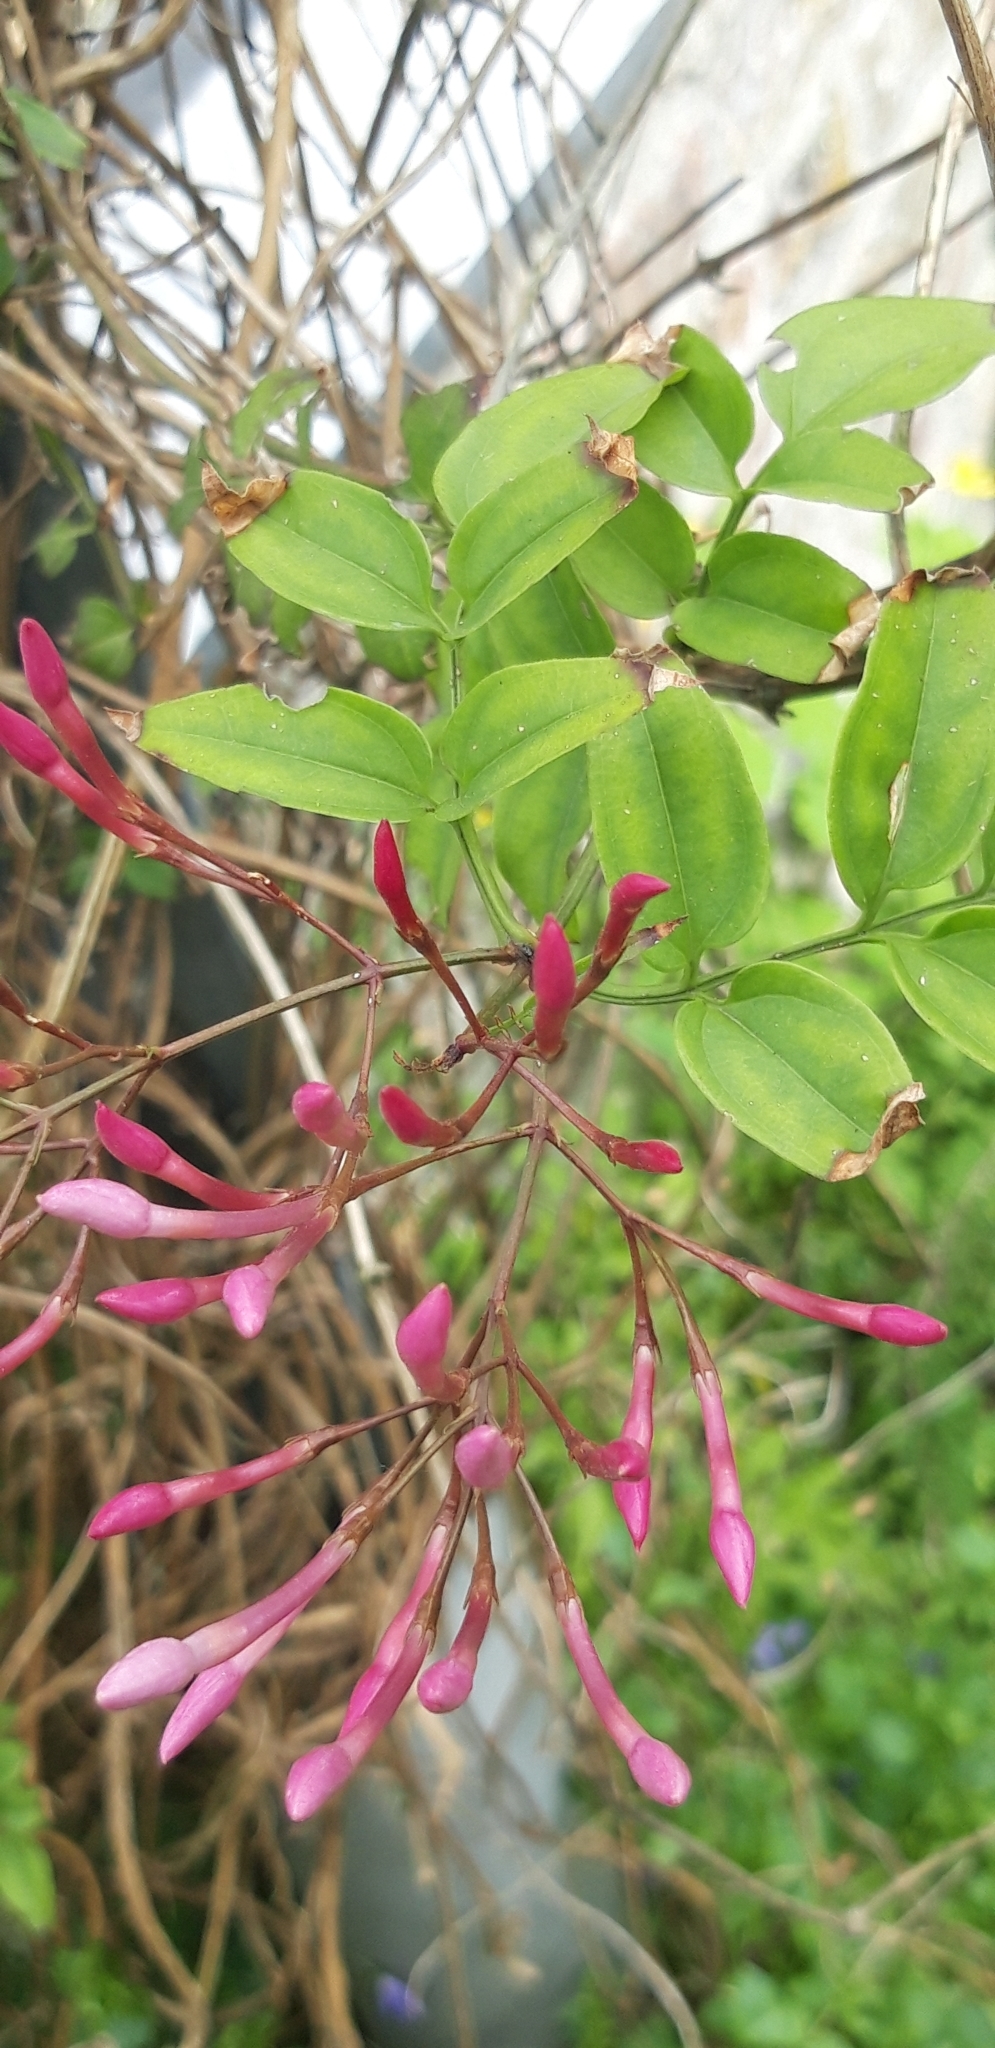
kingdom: Plantae
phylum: Tracheophyta
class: Magnoliopsida
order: Lamiales
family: Oleaceae
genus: Jasminum
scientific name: Jasminum polyanthum
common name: Pink jasmine
